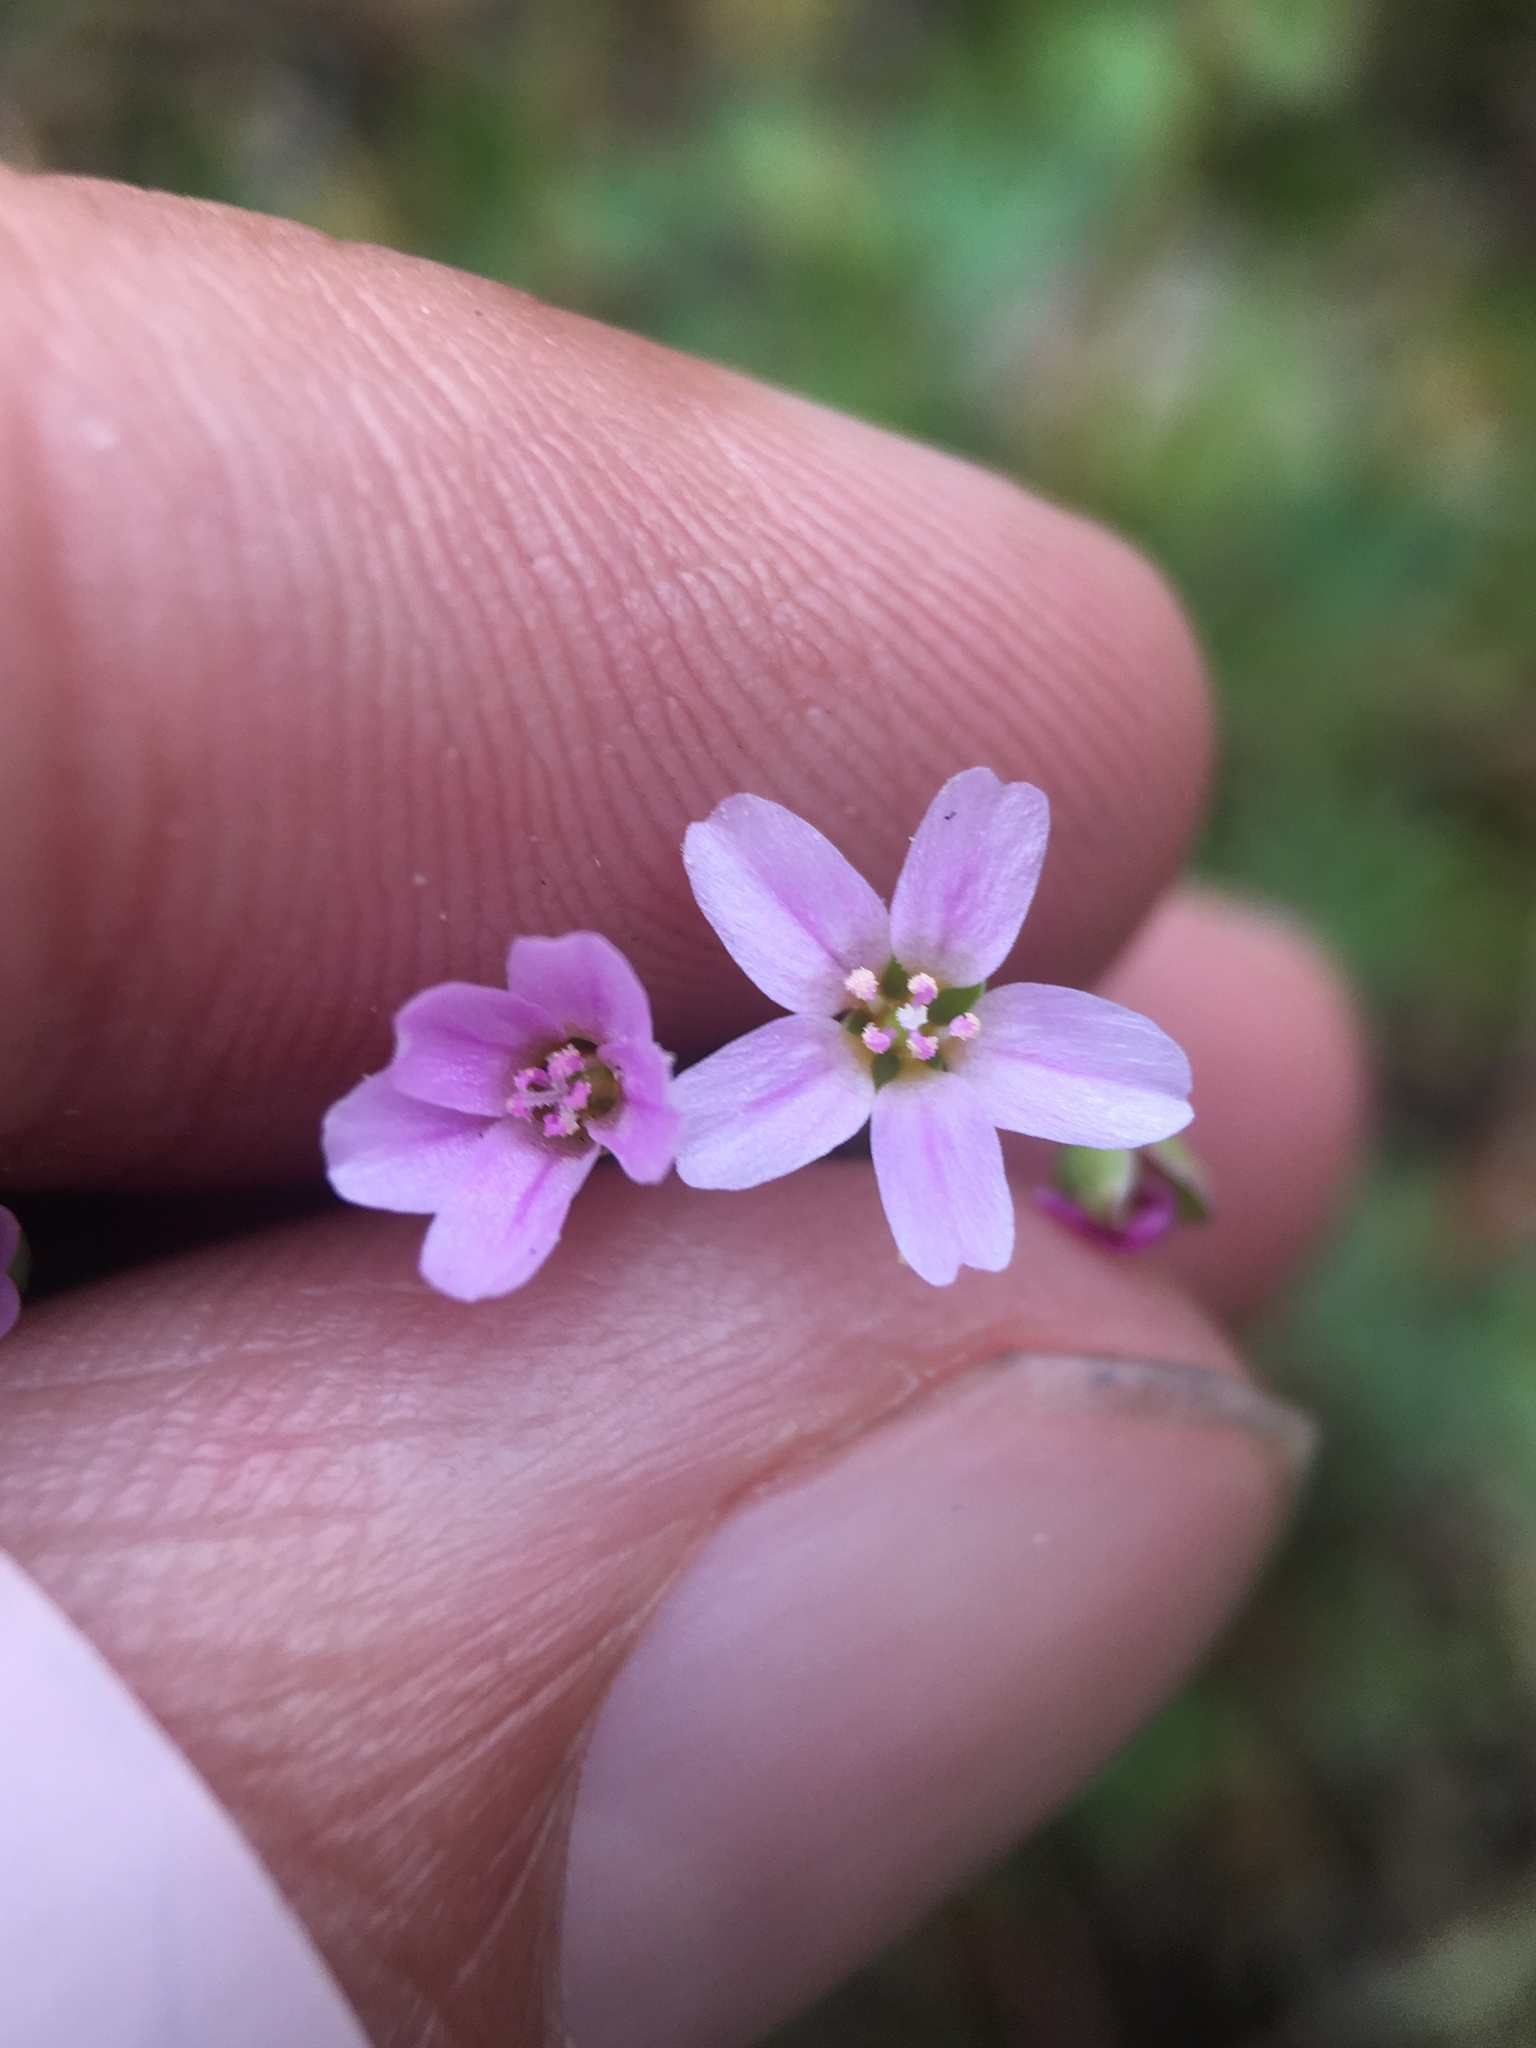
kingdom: Plantae
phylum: Tracheophyta
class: Magnoliopsida
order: Caryophyllales
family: Montiaceae
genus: Claytonia
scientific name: Claytonia parviflora
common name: Indian-lettuce
